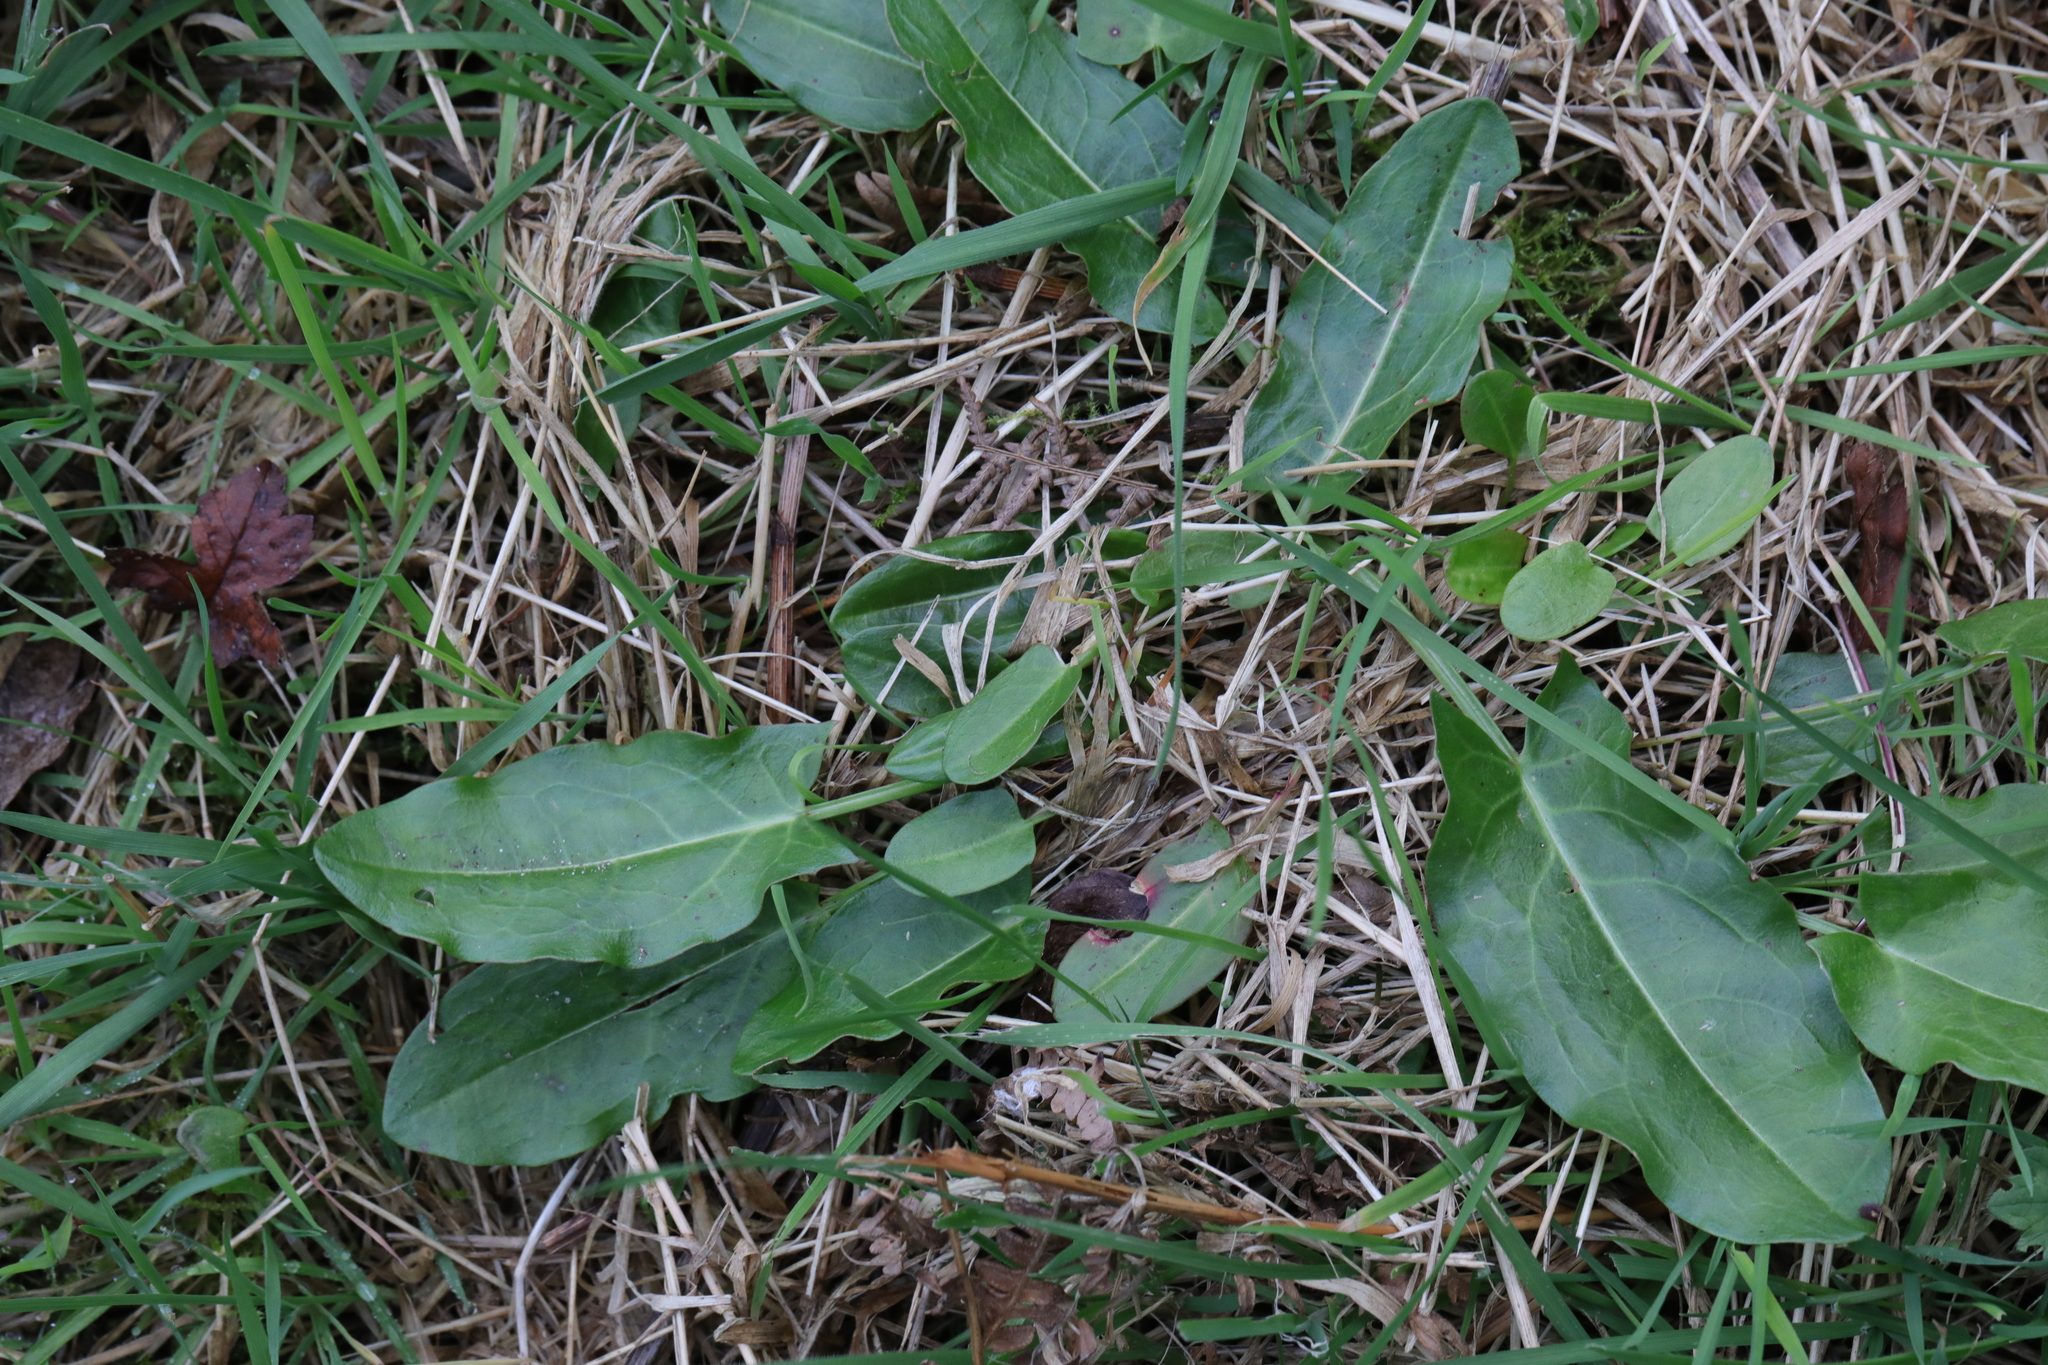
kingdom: Plantae
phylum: Tracheophyta
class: Magnoliopsida
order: Caryophyllales
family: Polygonaceae
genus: Rumex
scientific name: Rumex acetosa
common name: Garden sorrel
